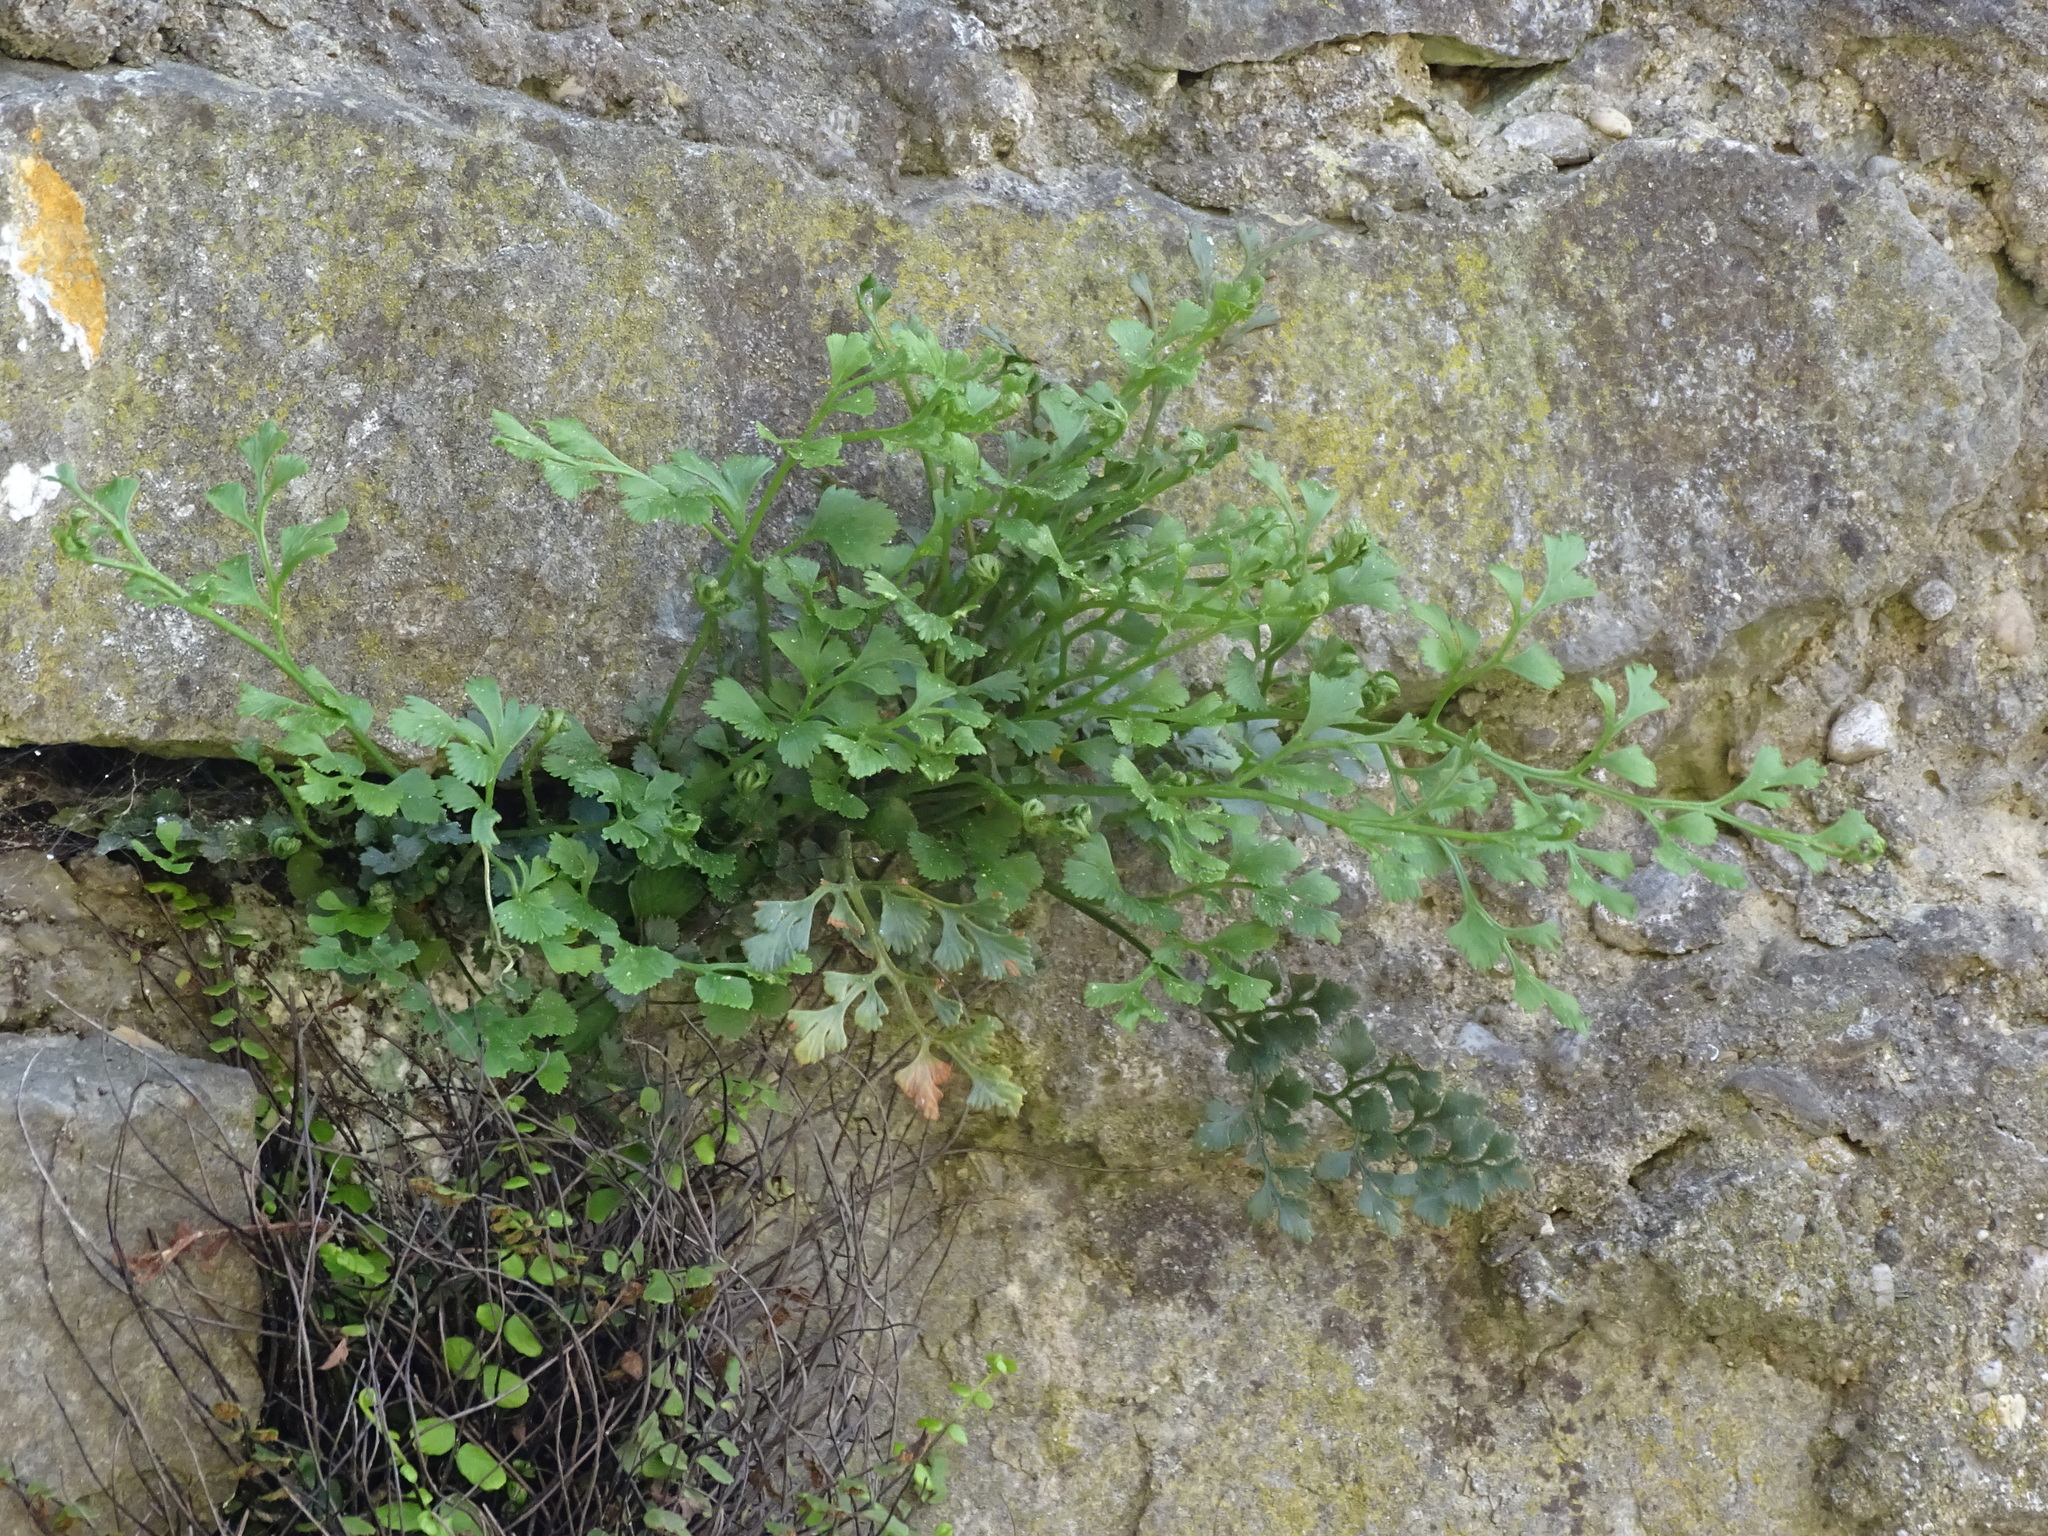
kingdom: Plantae
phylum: Tracheophyta
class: Polypodiopsida
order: Polypodiales
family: Aspleniaceae
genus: Asplenium
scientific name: Asplenium ruta-muraria
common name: Wall-rue
